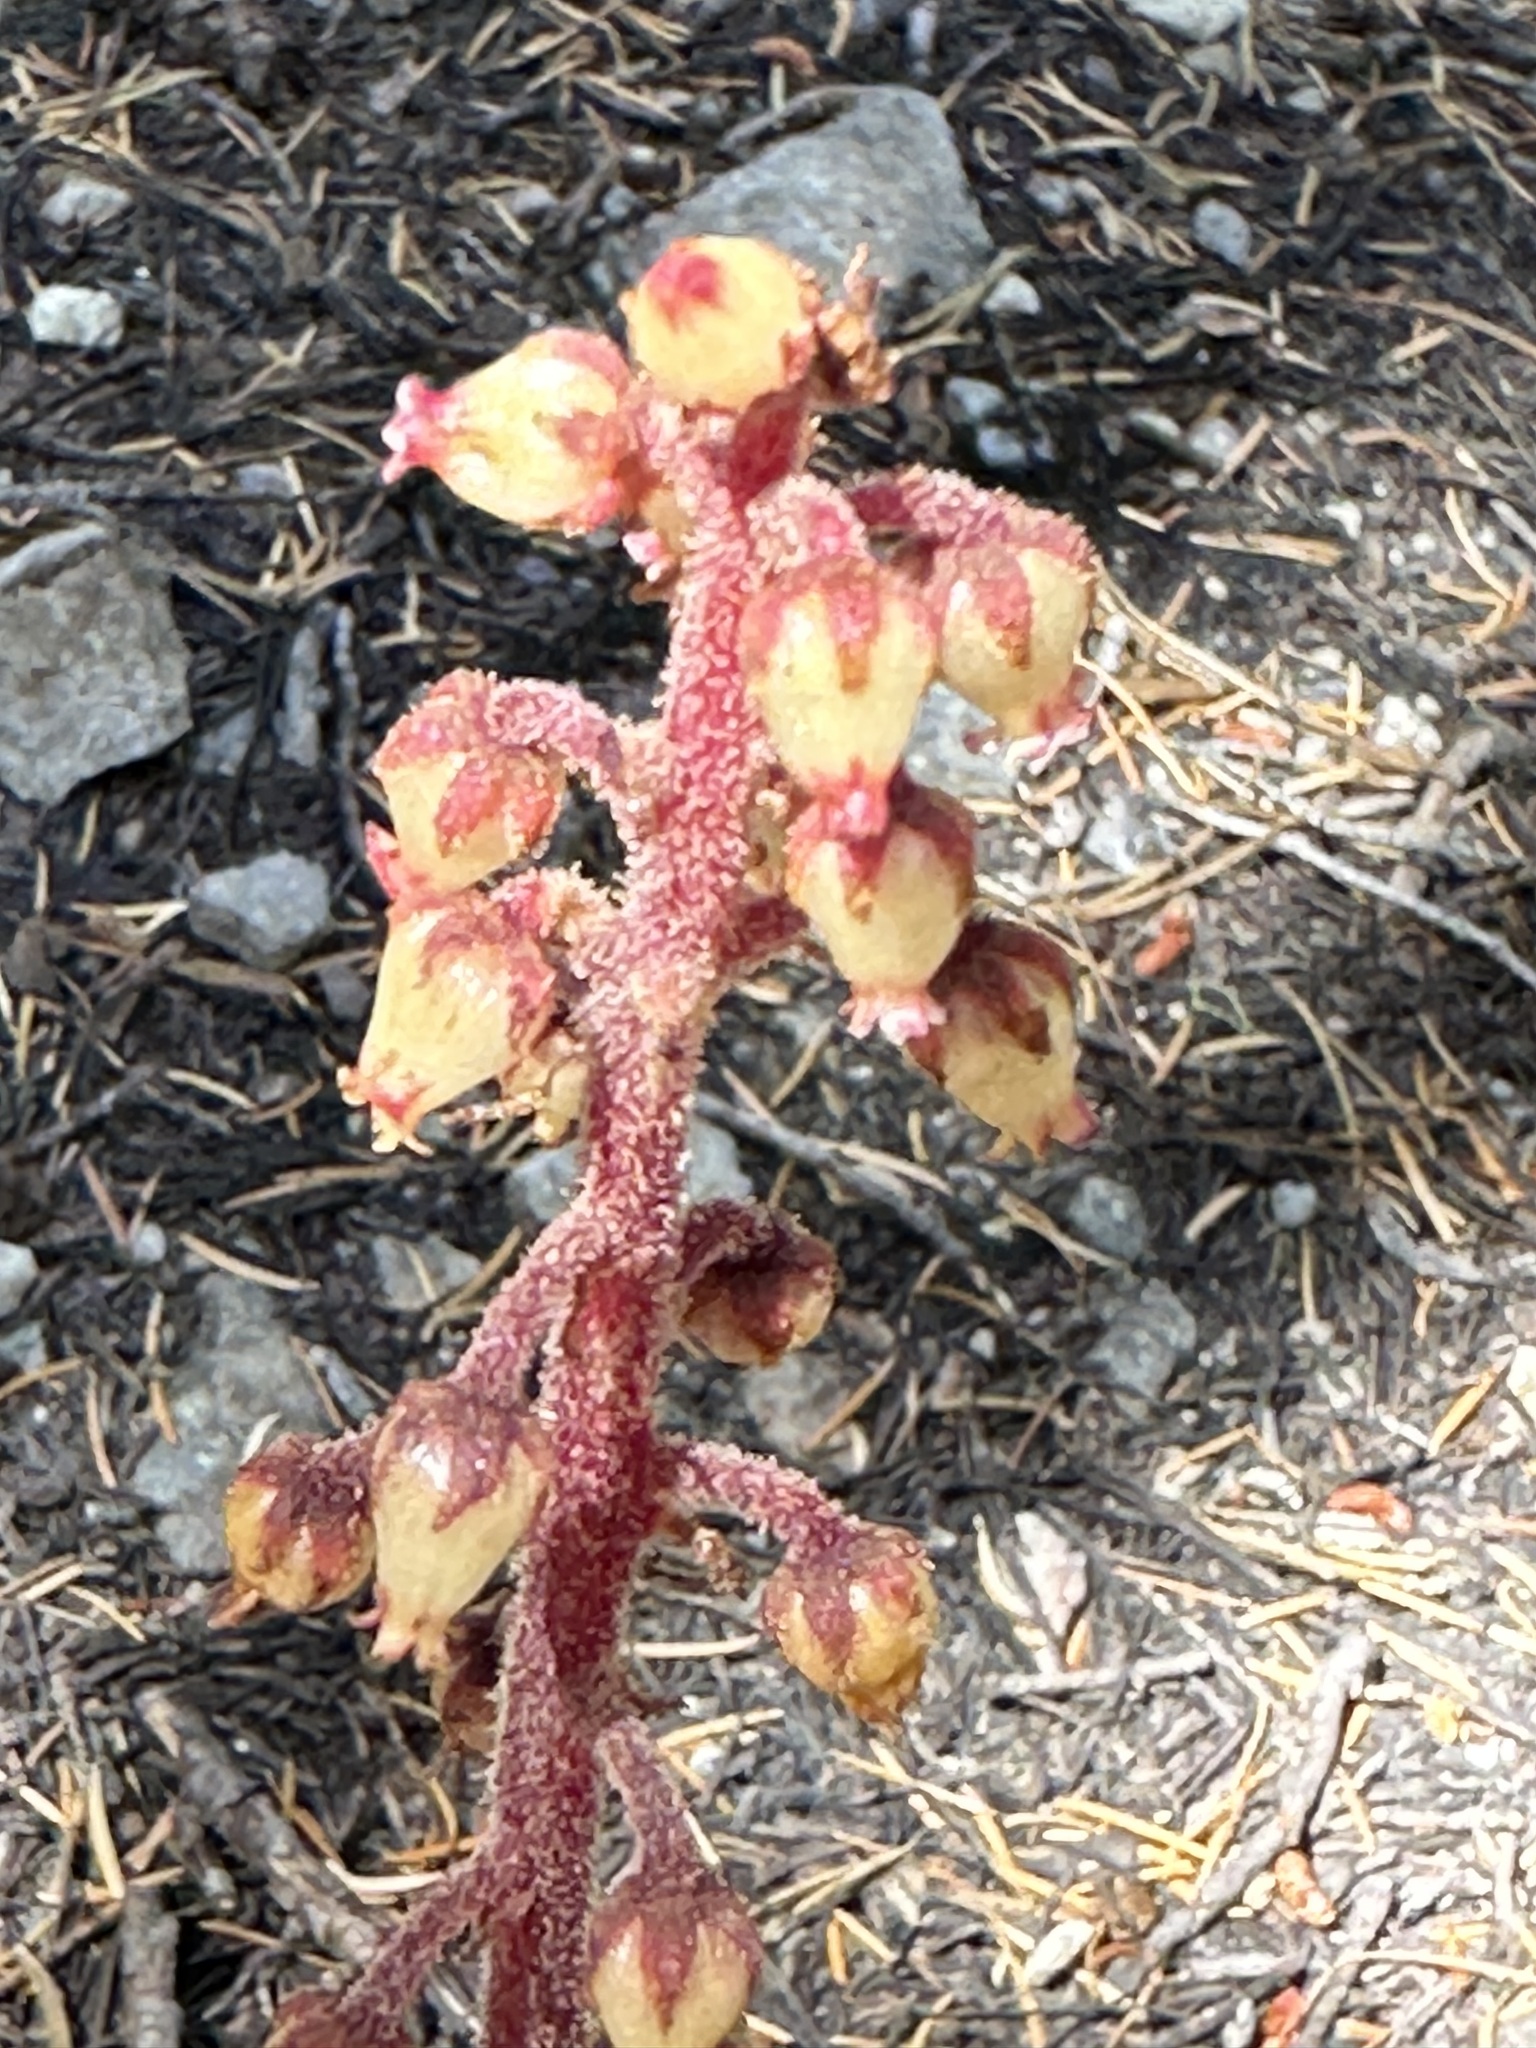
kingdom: Plantae
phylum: Tracheophyta
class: Magnoliopsida
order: Ericales
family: Ericaceae
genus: Pterospora
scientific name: Pterospora andromedea
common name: Giant bird's-nest
